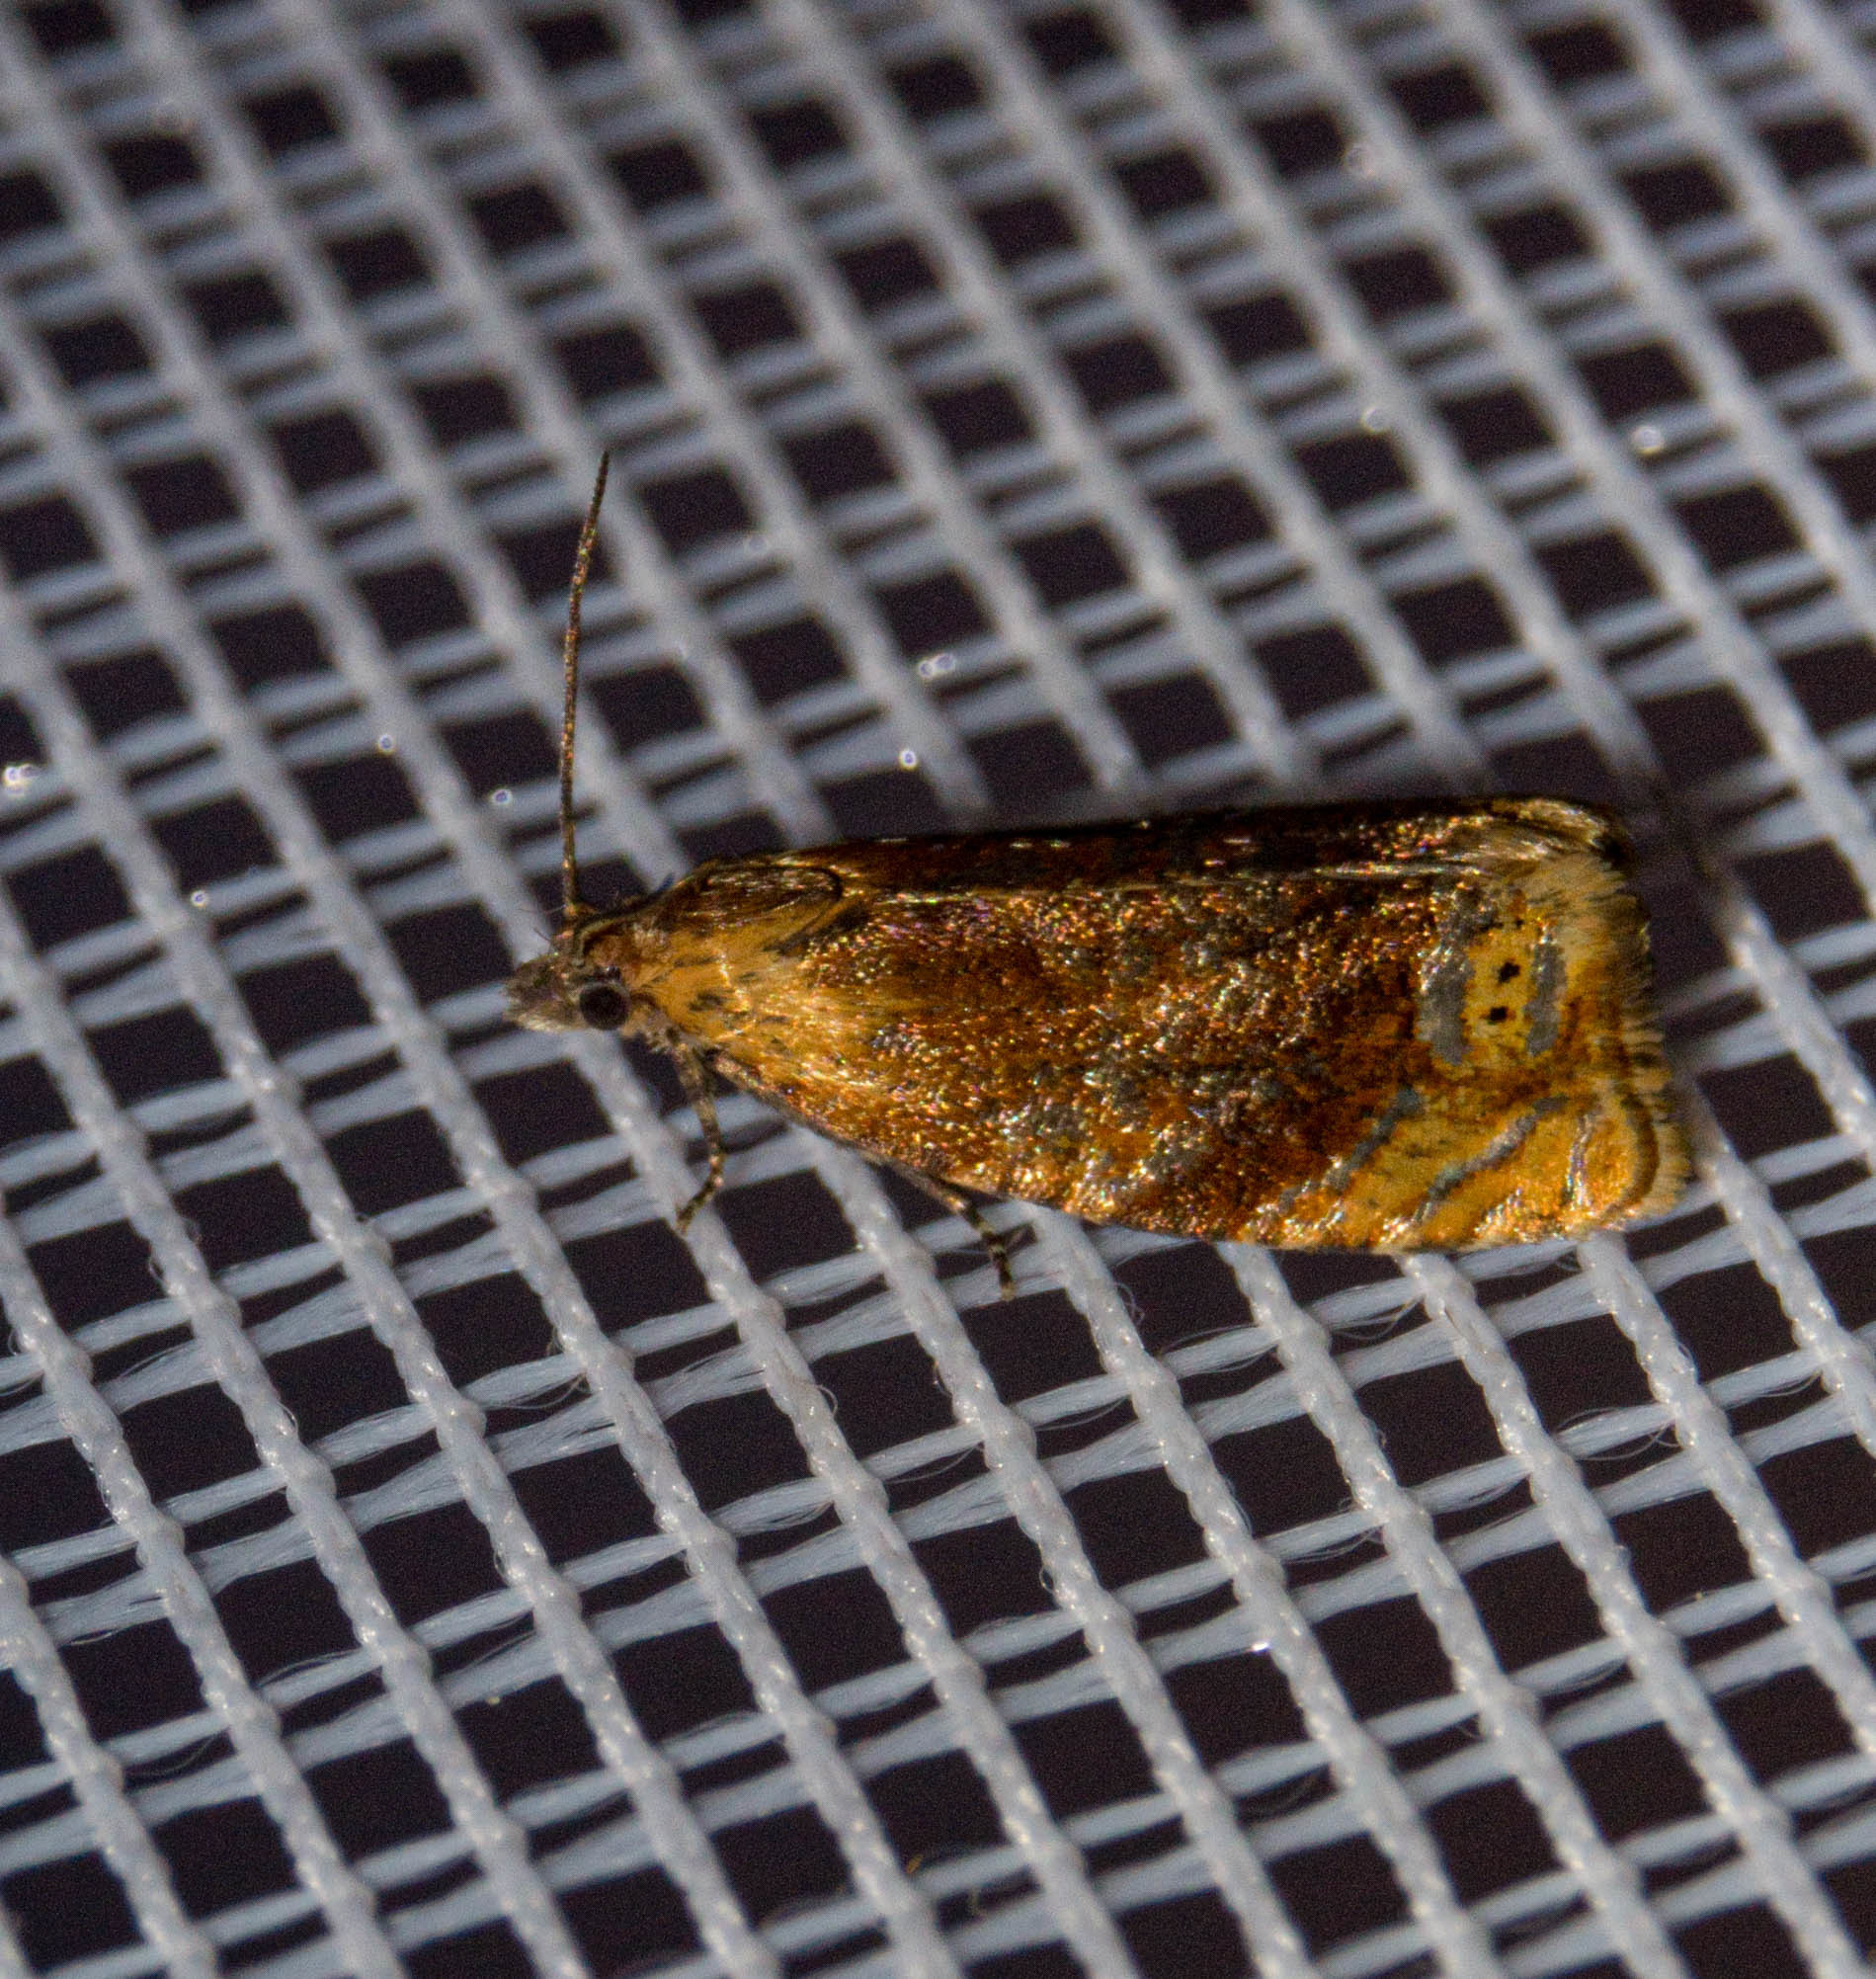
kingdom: Animalia
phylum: Arthropoda
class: Insecta
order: Lepidoptera
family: Tortricidae
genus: Eucosmomorpha
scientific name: Eucosmomorpha albersana
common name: Honeysuckle bell
